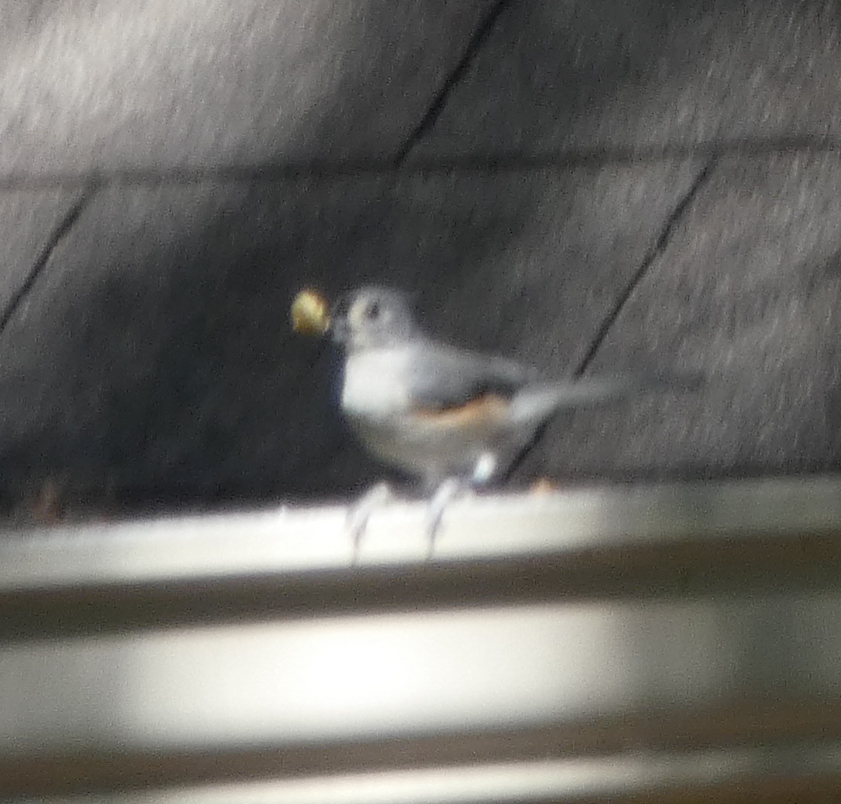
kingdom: Animalia
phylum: Chordata
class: Aves
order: Passeriformes
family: Paridae
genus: Baeolophus
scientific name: Baeolophus bicolor
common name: Tufted titmouse
